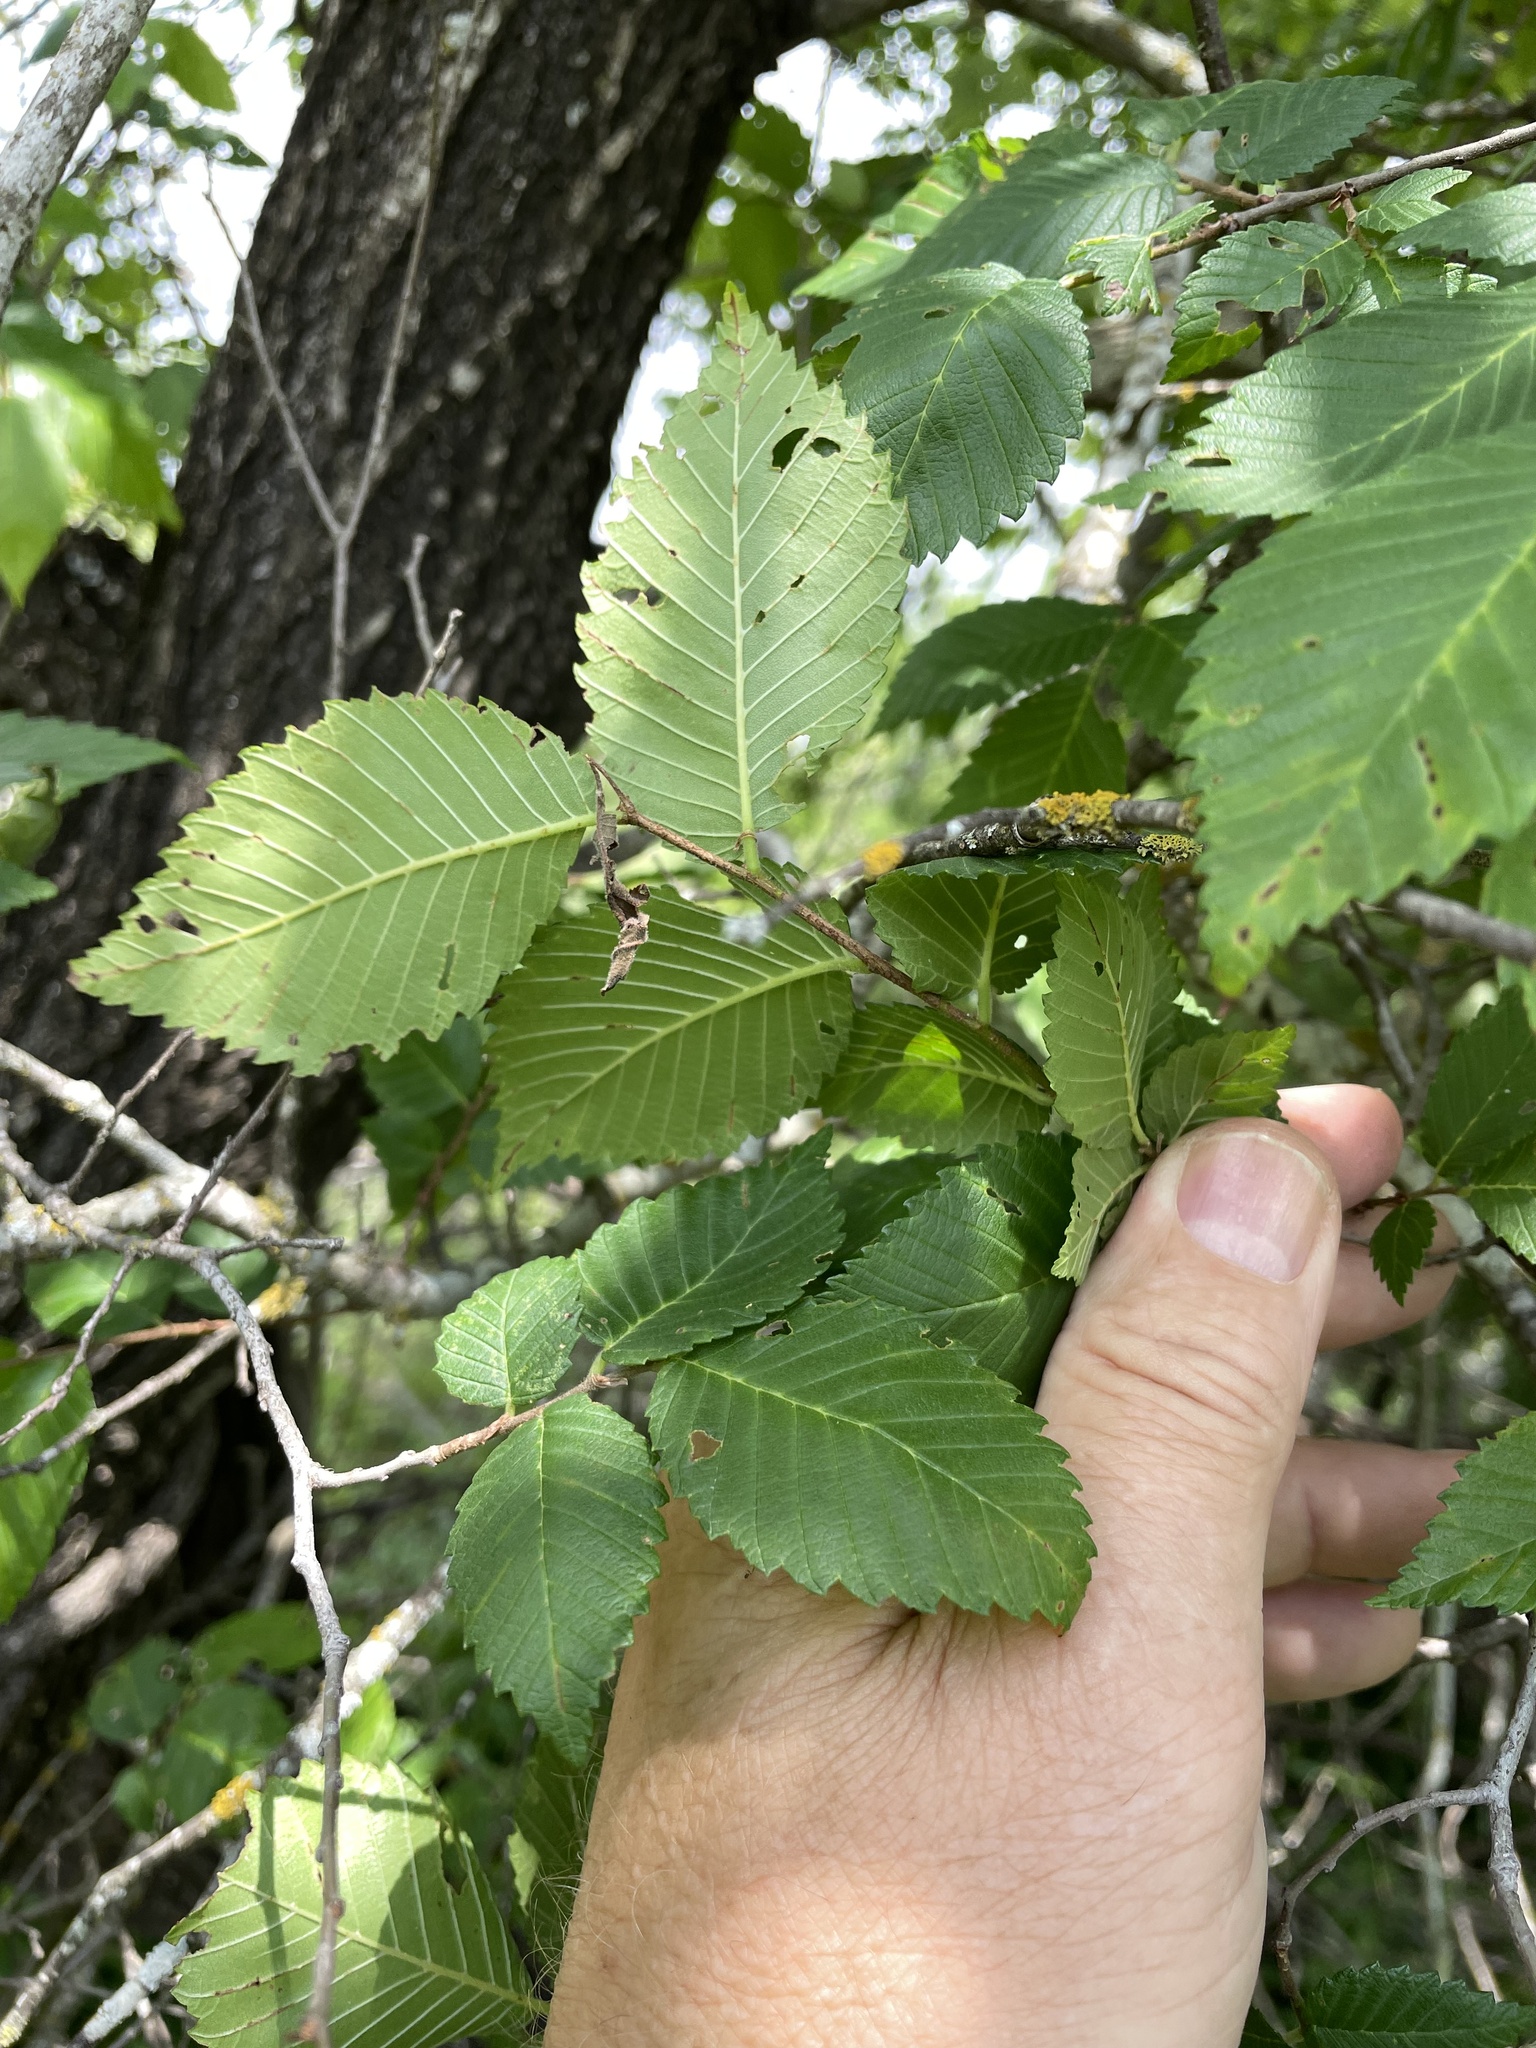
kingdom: Plantae
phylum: Tracheophyta
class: Magnoliopsida
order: Rosales
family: Ulmaceae
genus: Ulmus
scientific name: Ulmus americana
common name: American elm
